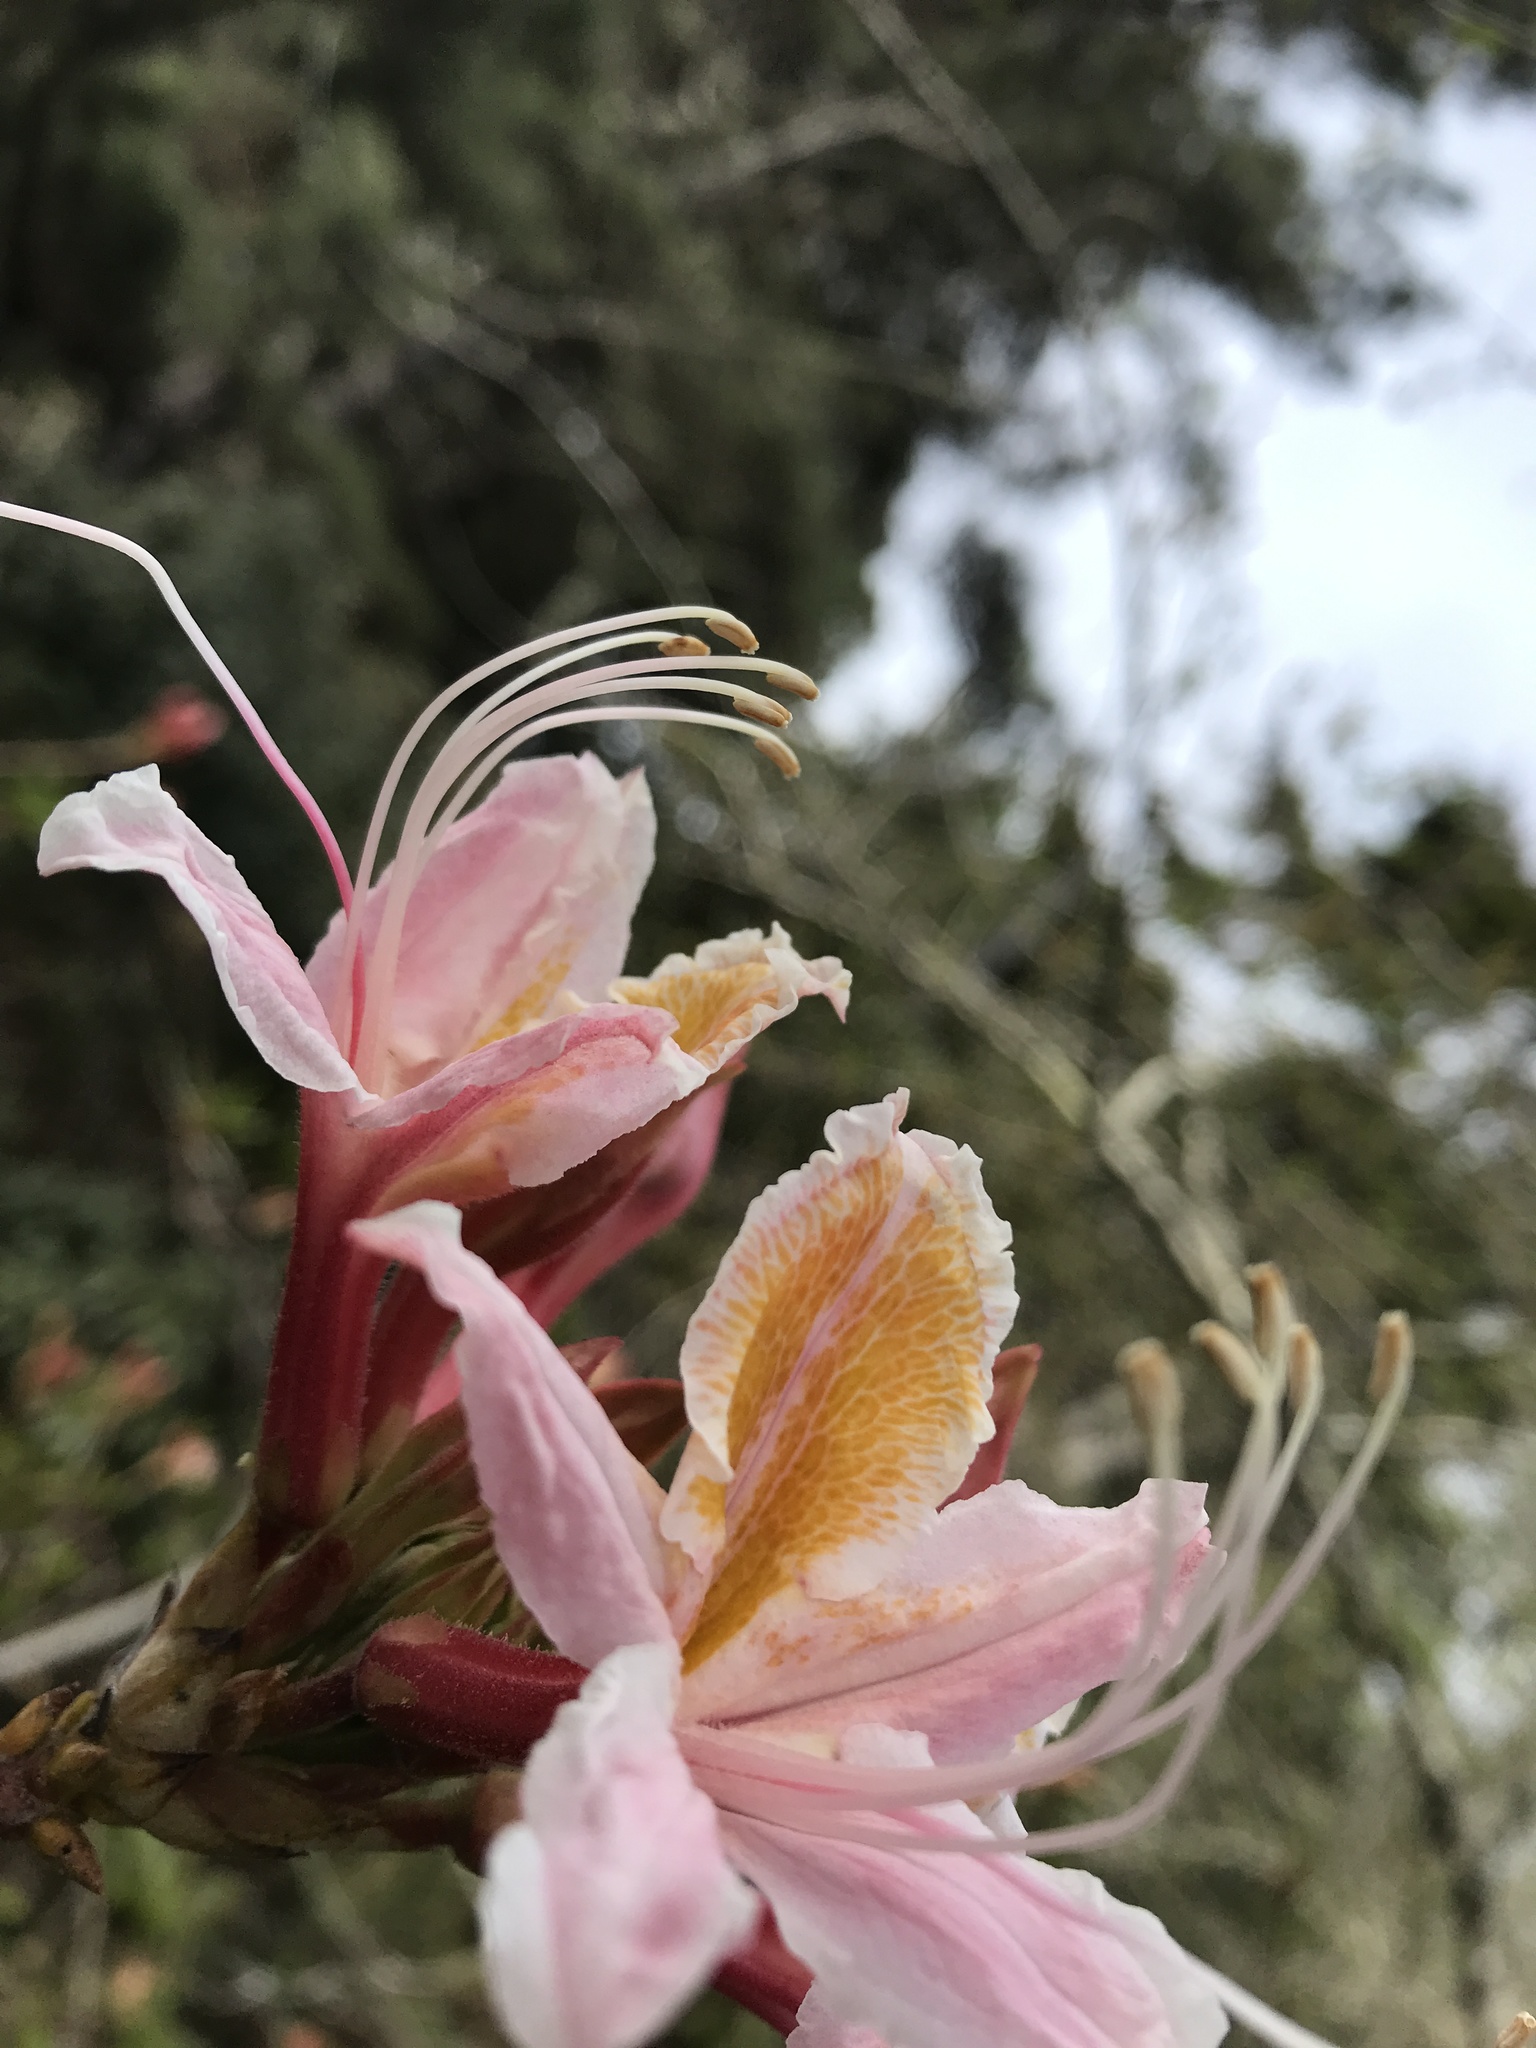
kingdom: Plantae
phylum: Tracheophyta
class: Magnoliopsida
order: Ericales
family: Ericaceae
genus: Rhododendron
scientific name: Rhododendron occidentale
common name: Western azalea
